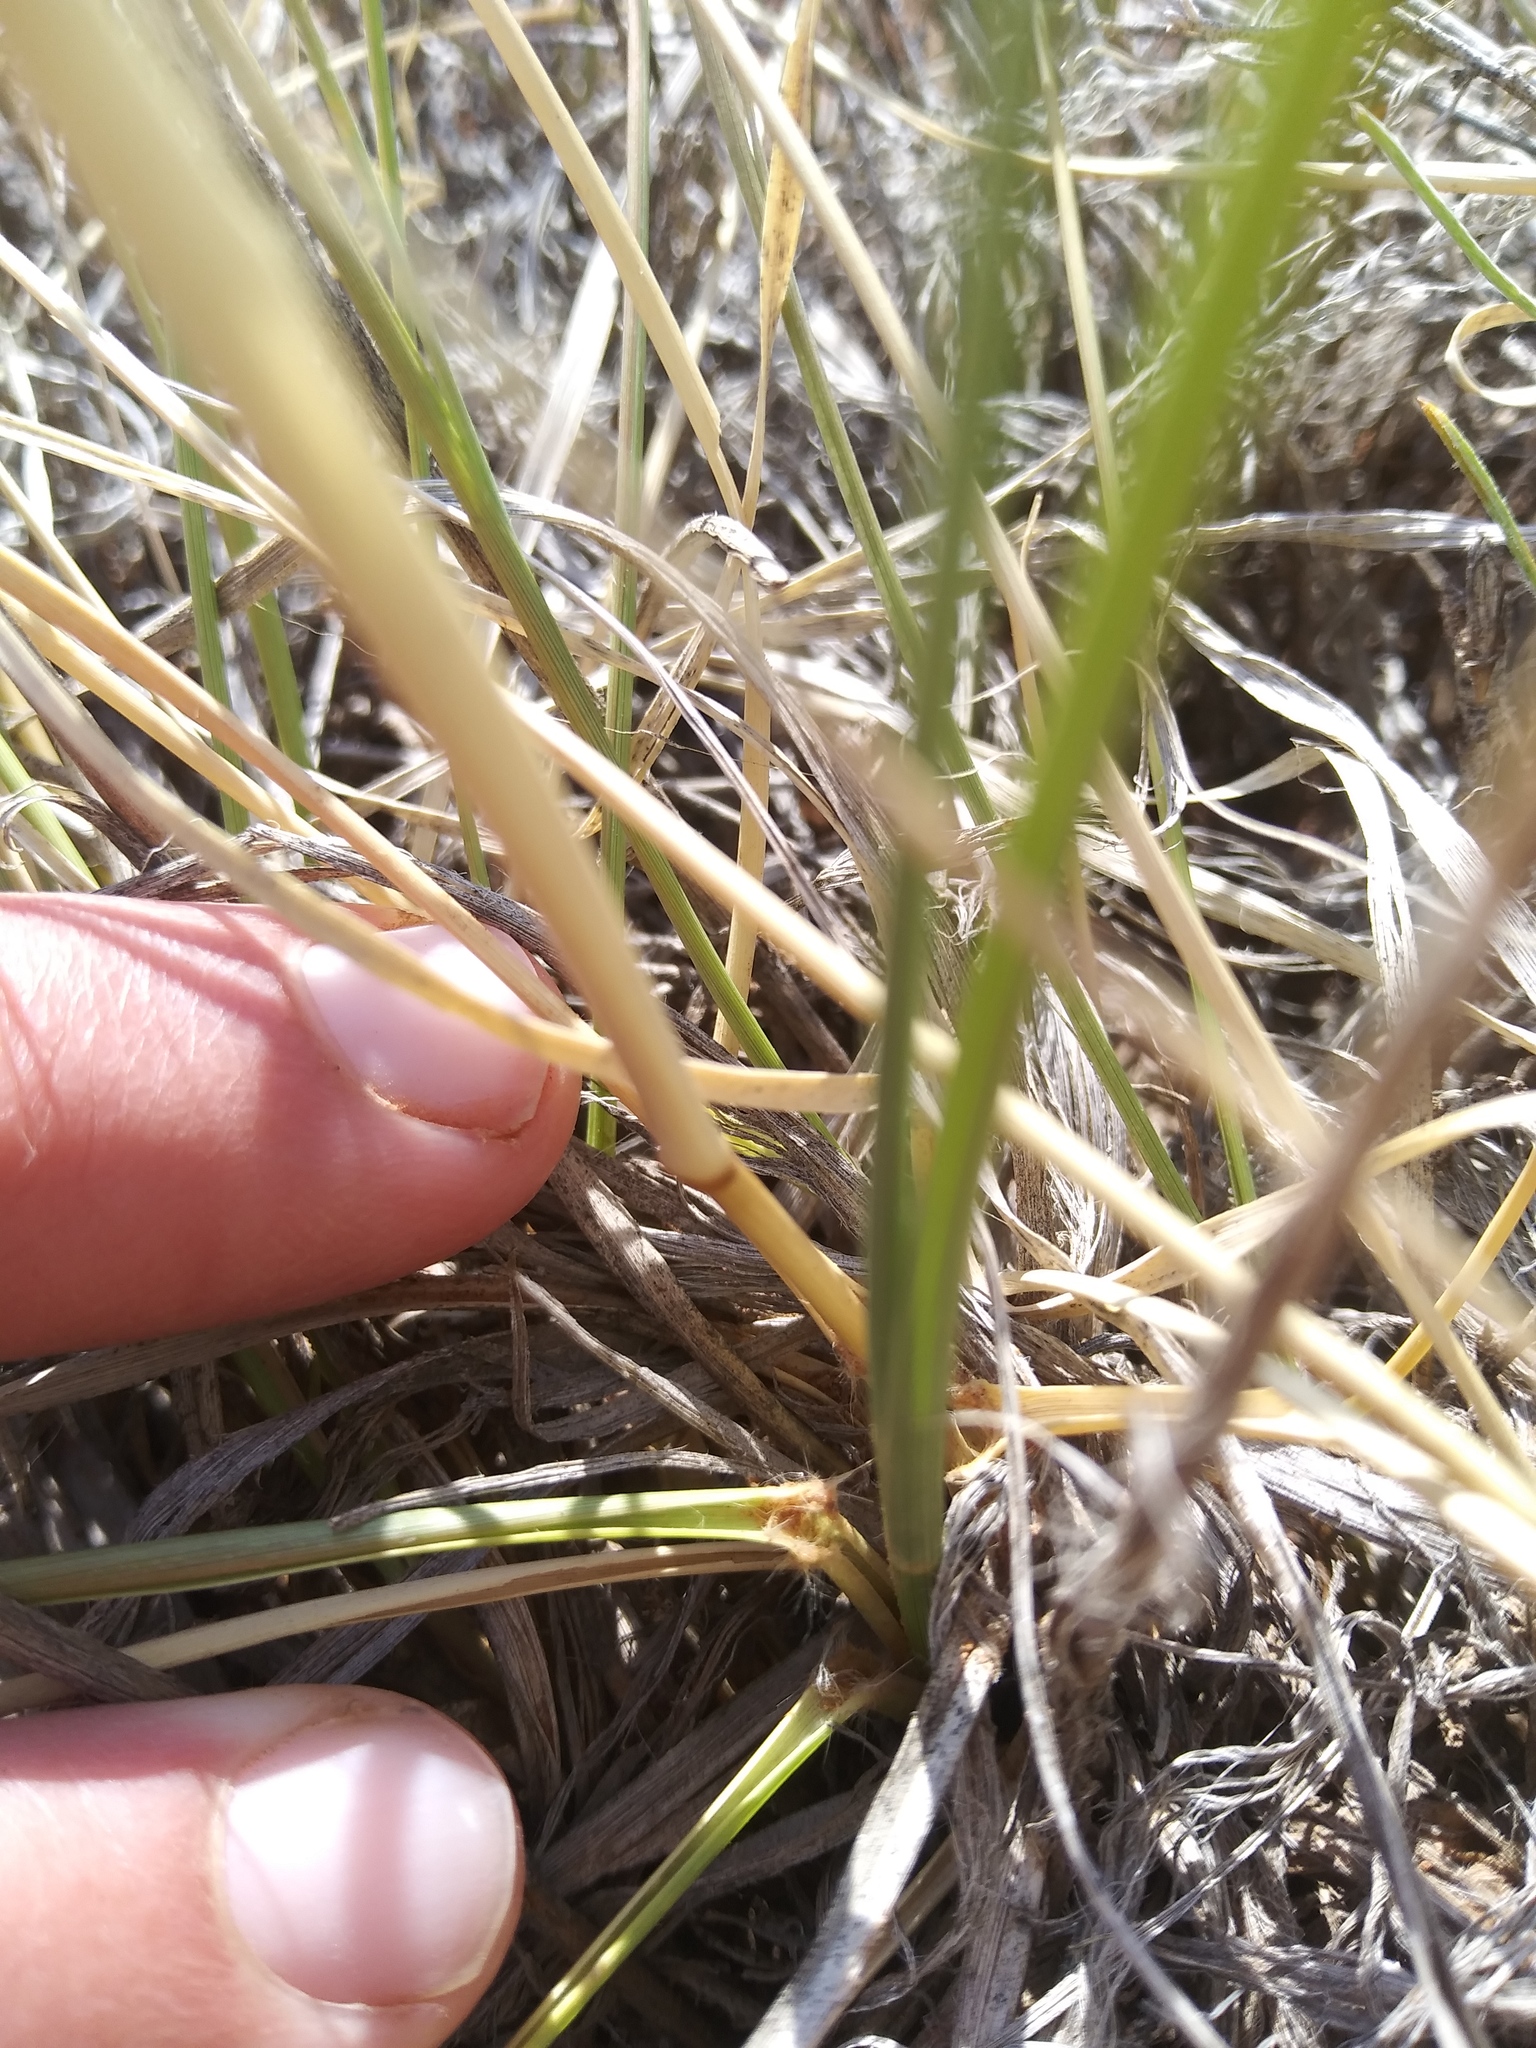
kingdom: Plantae
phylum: Tracheophyta
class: Liliopsida
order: Poales
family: Poaceae
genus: Sporobolus
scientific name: Sporobolus airoides
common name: Alkali sacaton
